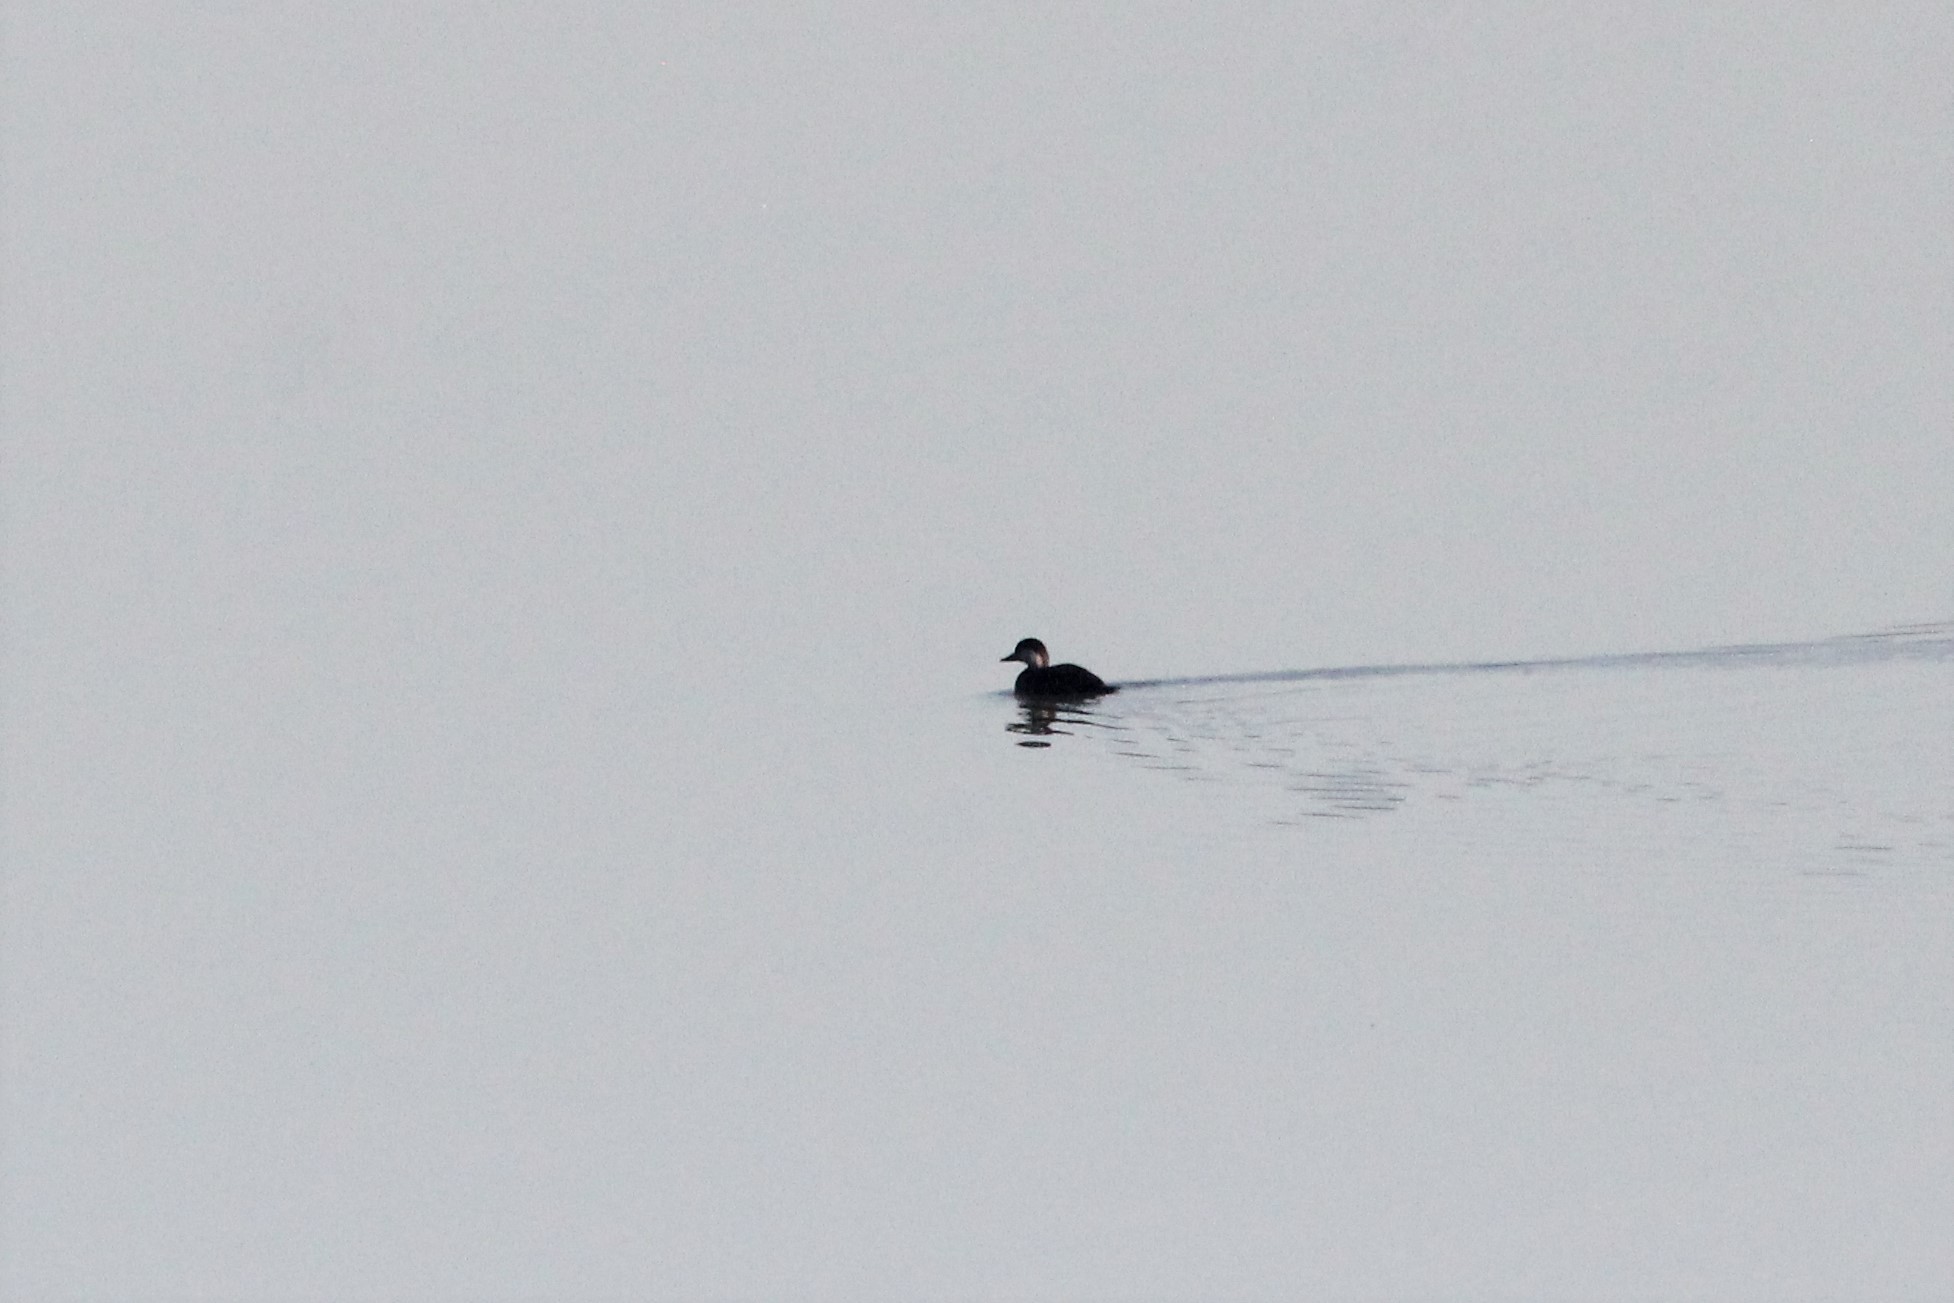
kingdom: Animalia
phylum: Chordata
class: Aves
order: Anseriformes
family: Anatidae
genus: Melanitta
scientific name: Melanitta americana
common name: Black scoter
